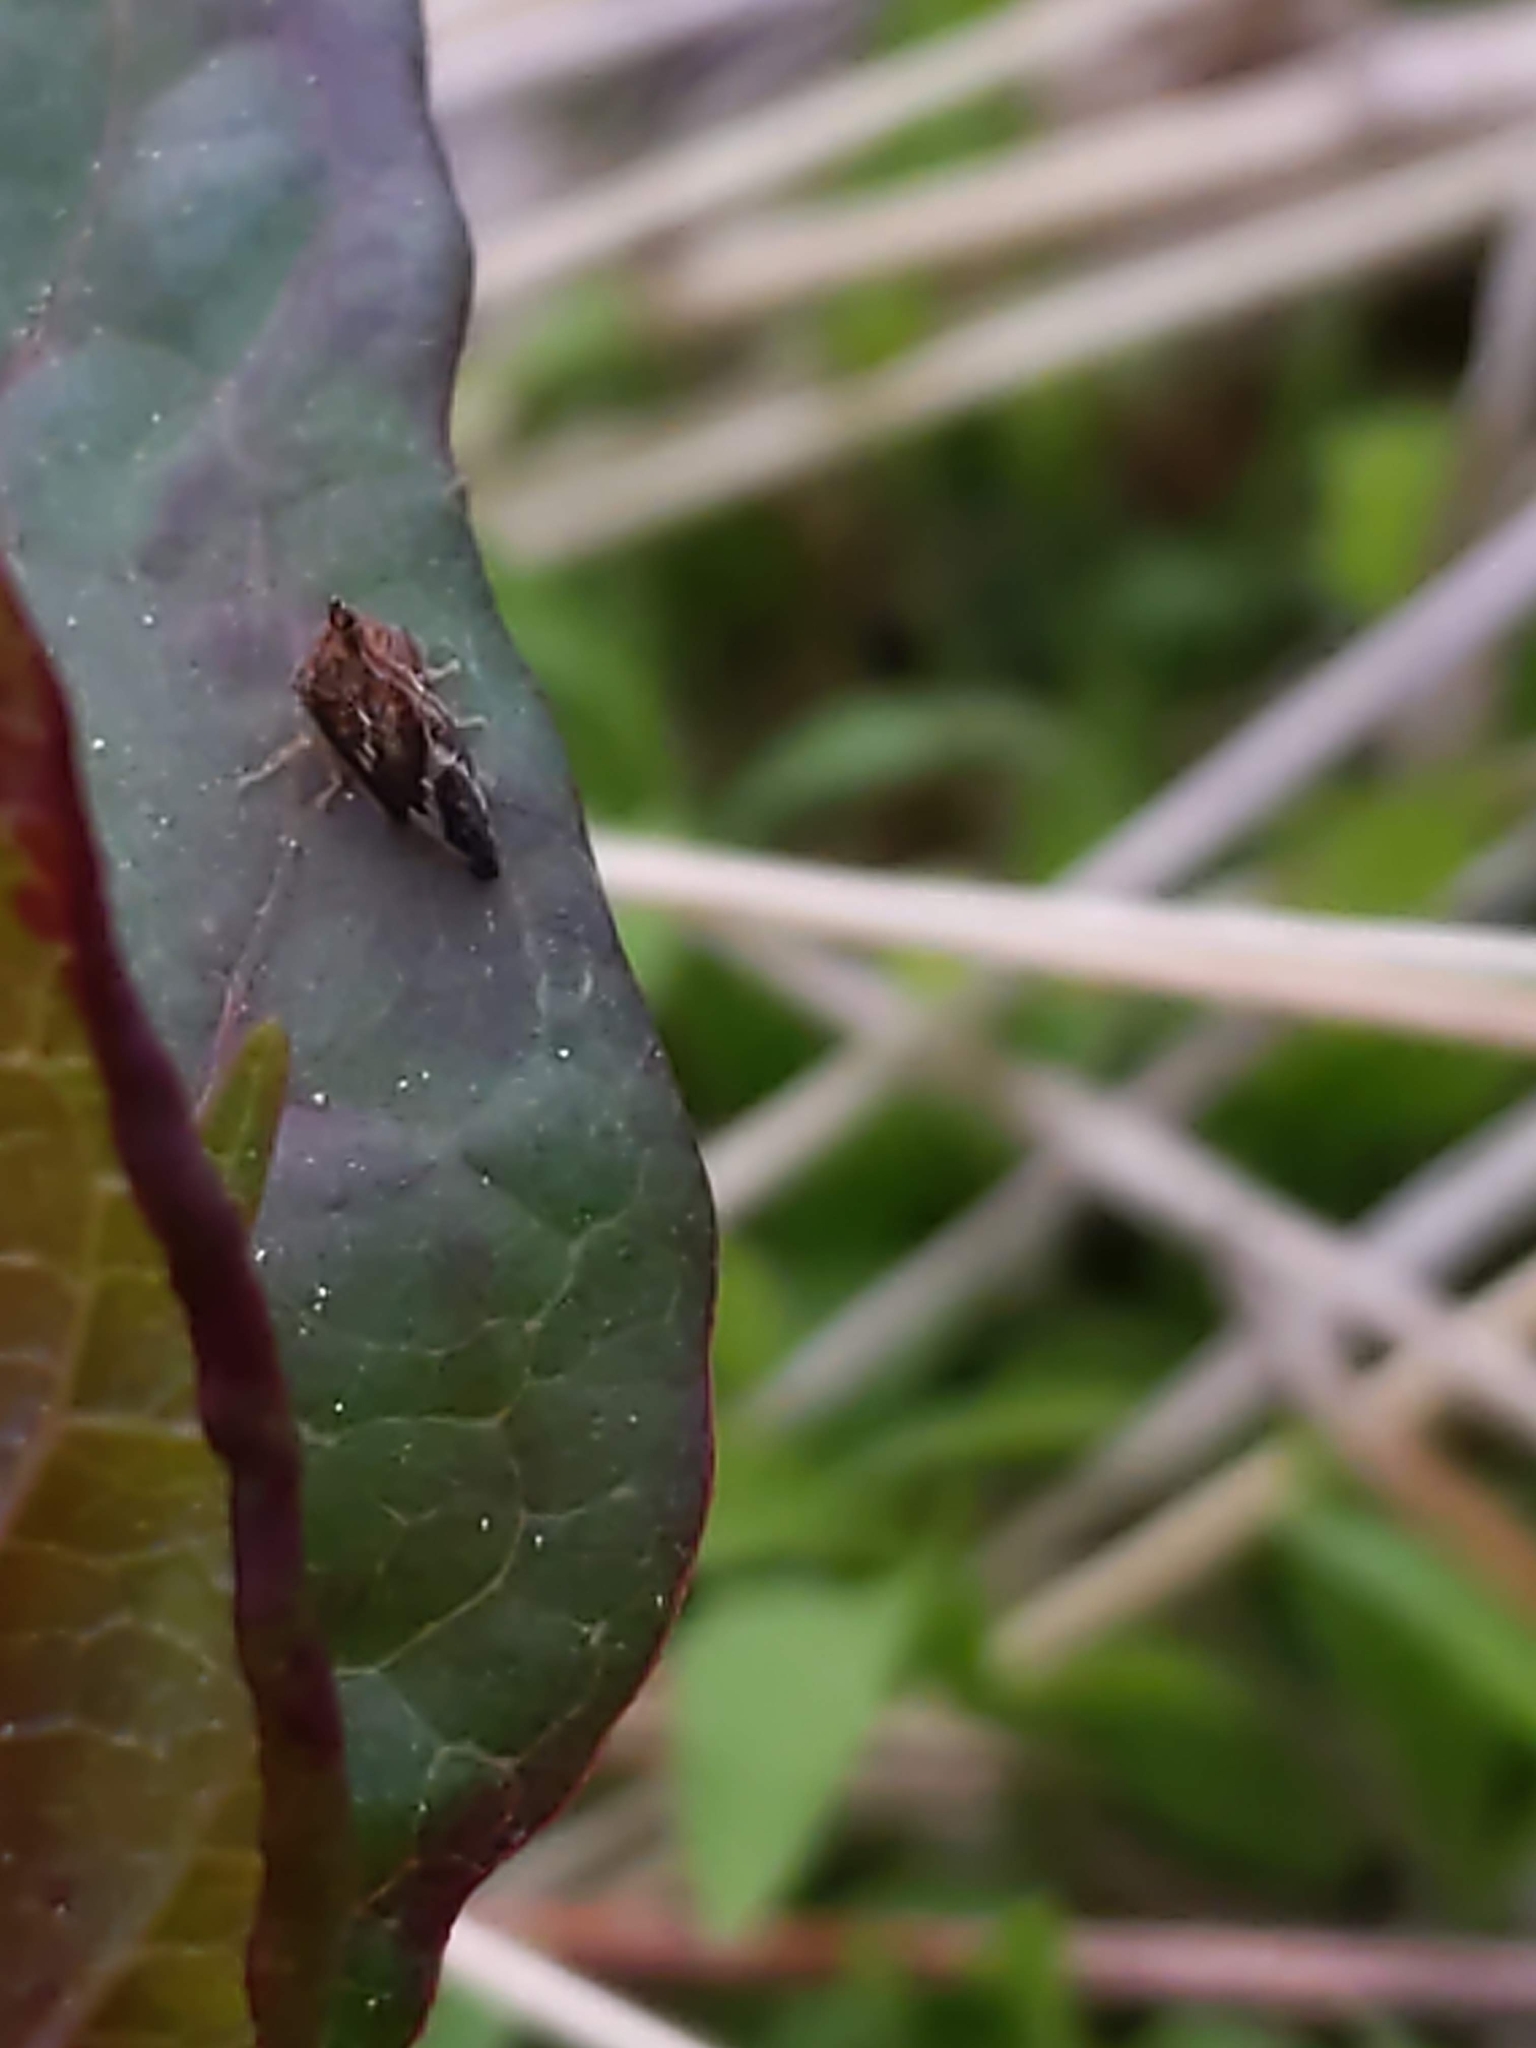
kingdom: Animalia
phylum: Arthropoda
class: Insecta
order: Hemiptera
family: Membracidae
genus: Entylia
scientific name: Entylia carinata
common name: Keeled treehopper
